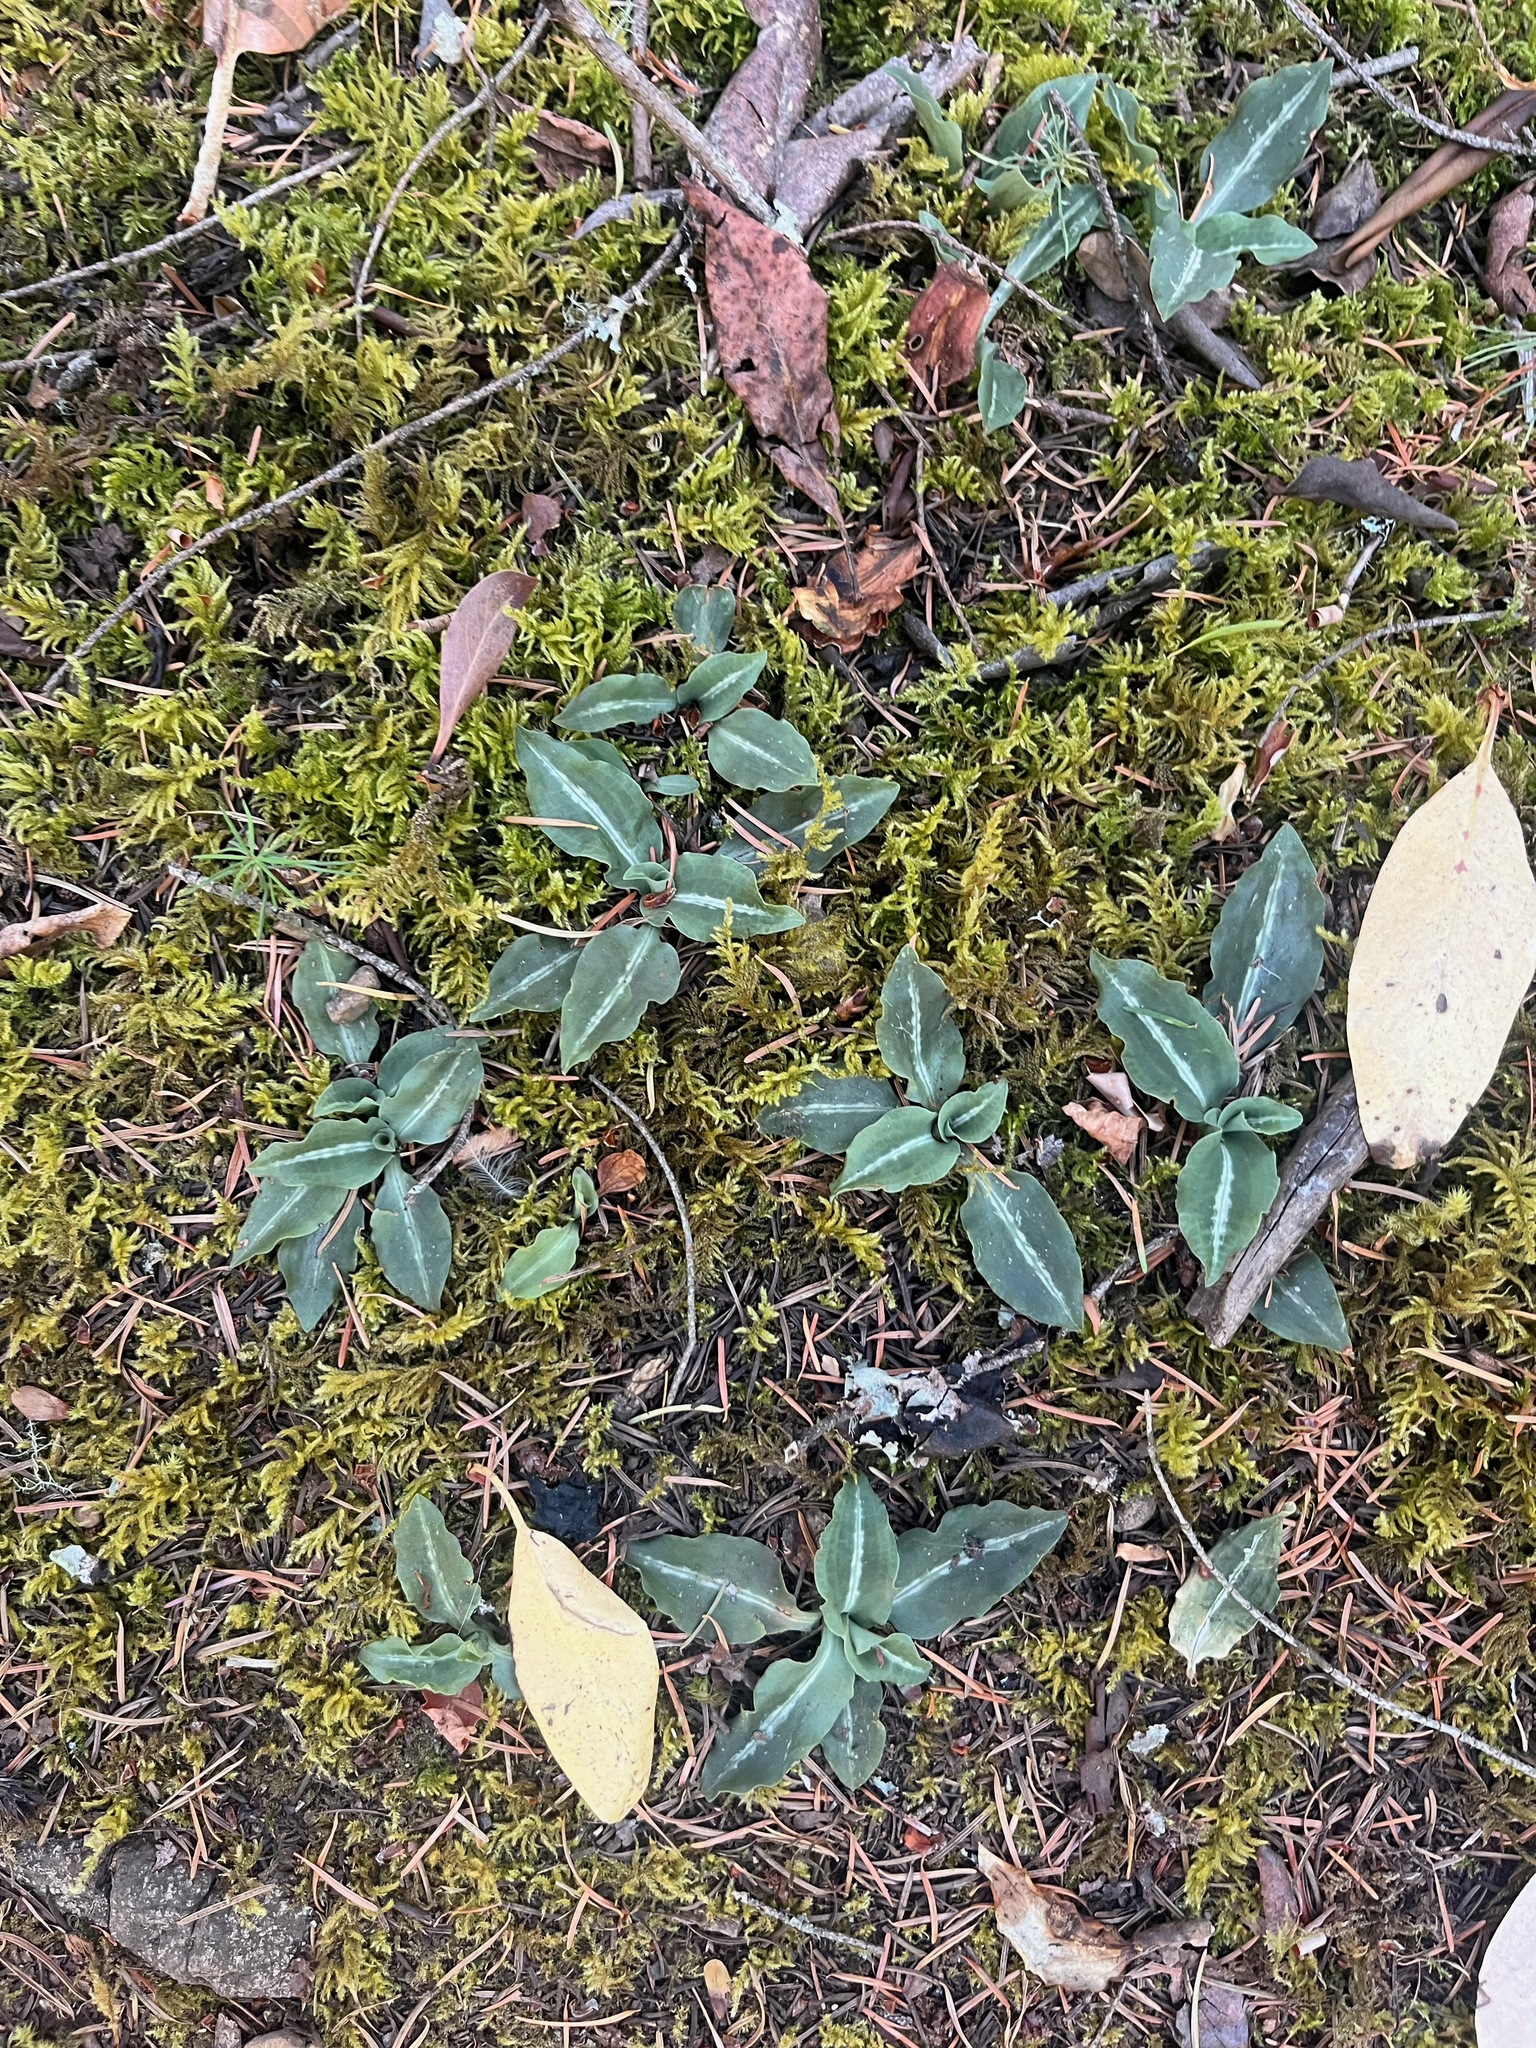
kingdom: Plantae
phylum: Tracheophyta
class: Liliopsida
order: Asparagales
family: Orchidaceae
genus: Goodyera
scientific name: Goodyera oblongifolia
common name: Giant rattlesnake-plantain
